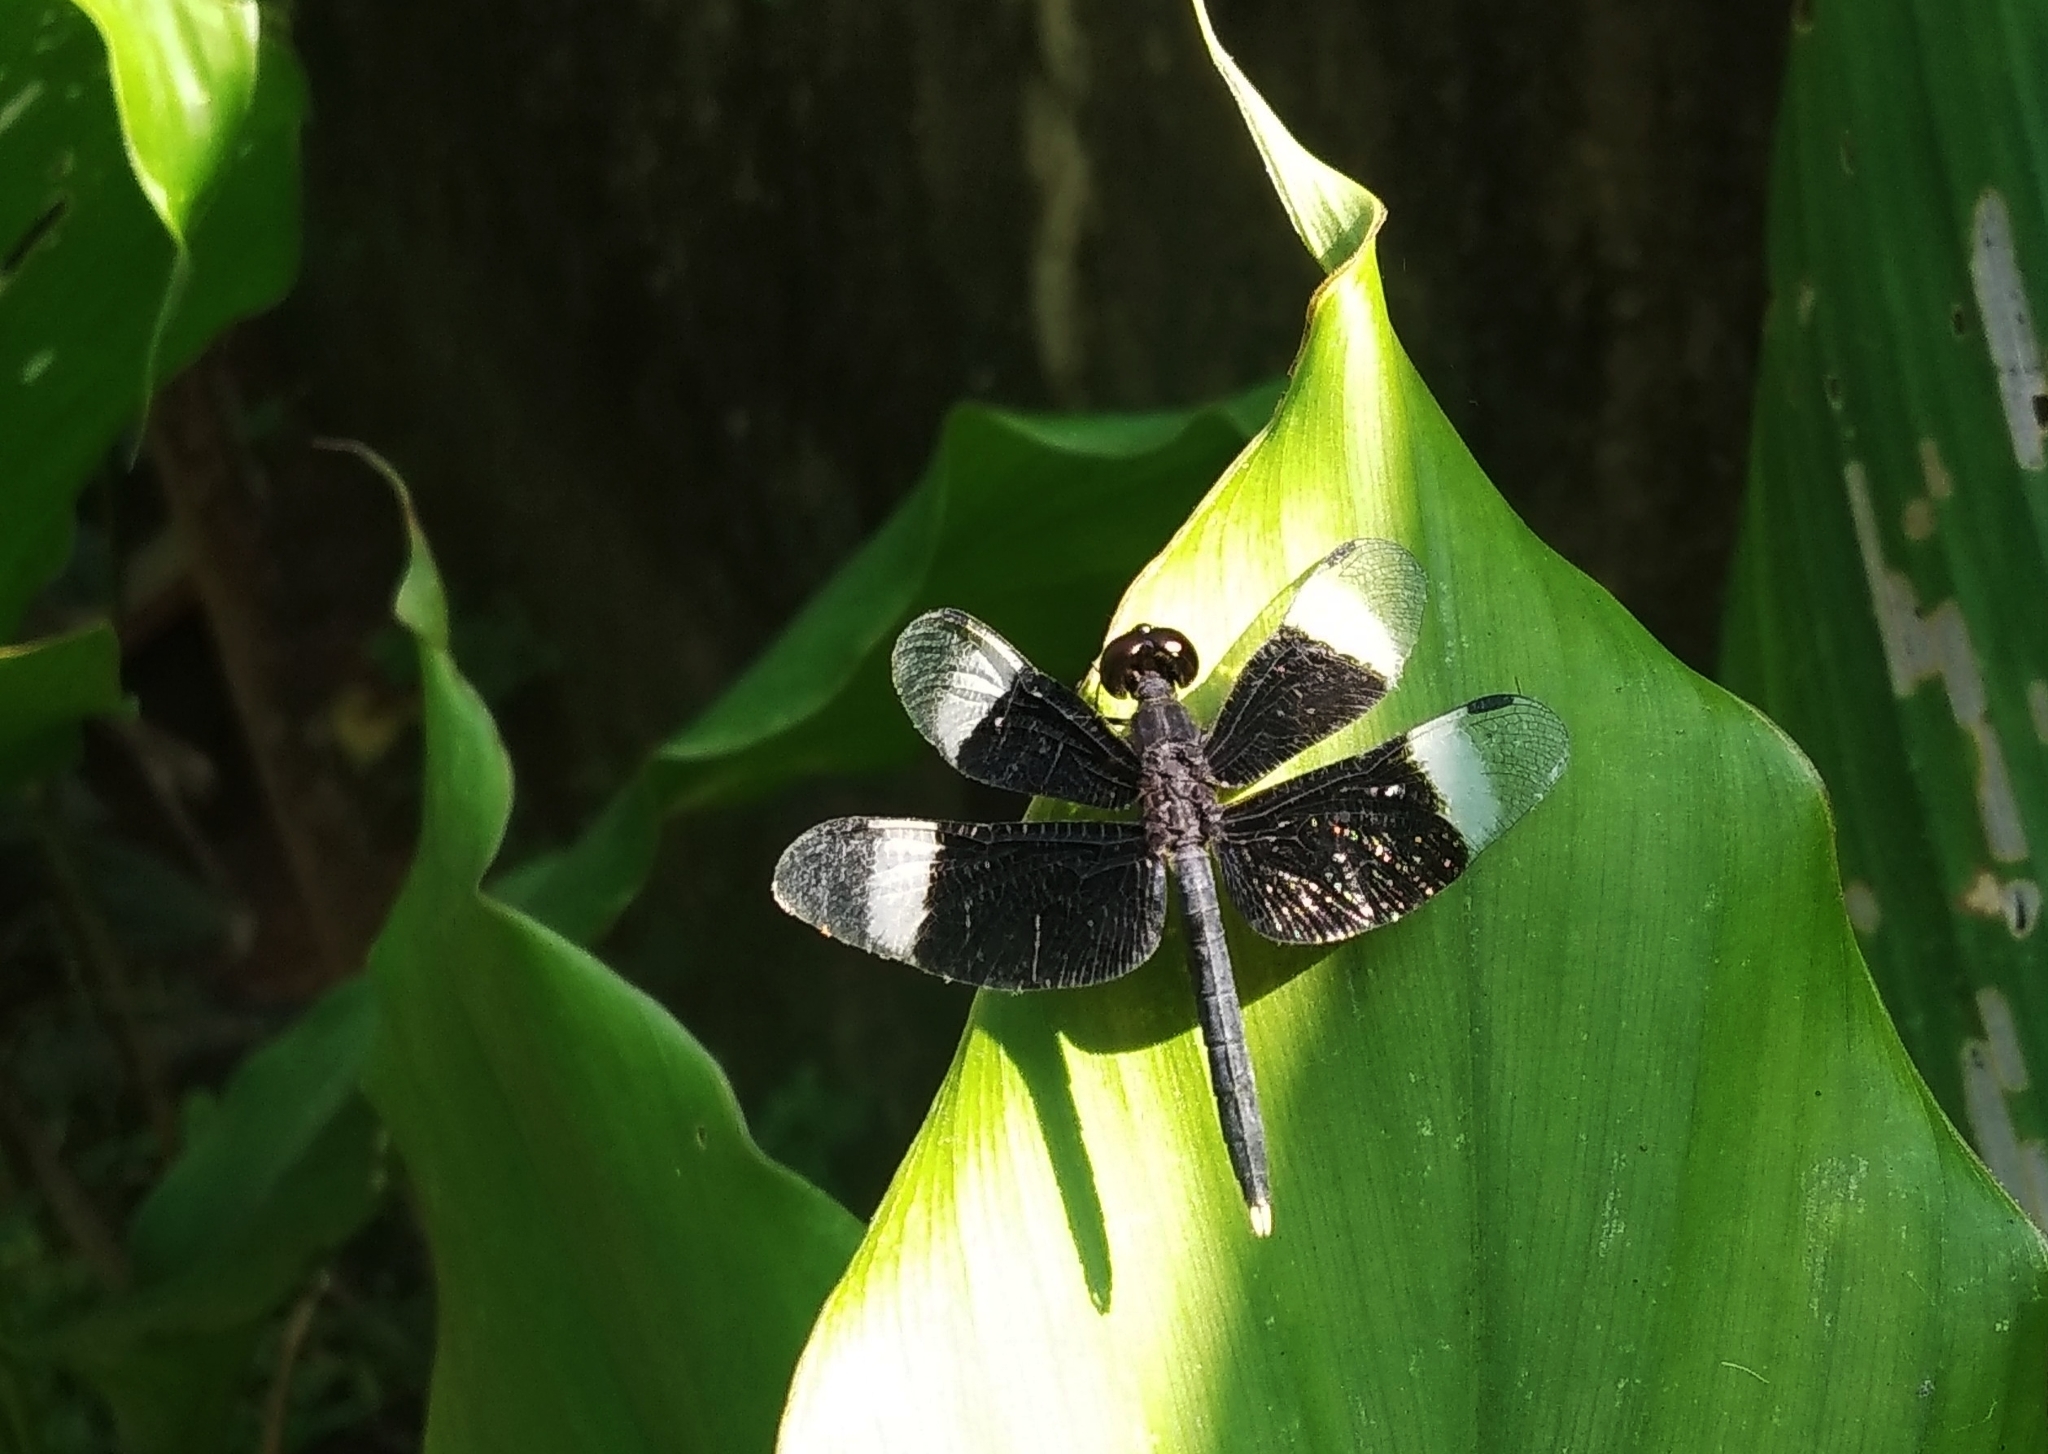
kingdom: Animalia
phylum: Arthropoda
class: Insecta
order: Odonata
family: Libellulidae
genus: Neurothemis
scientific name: Neurothemis tullia
